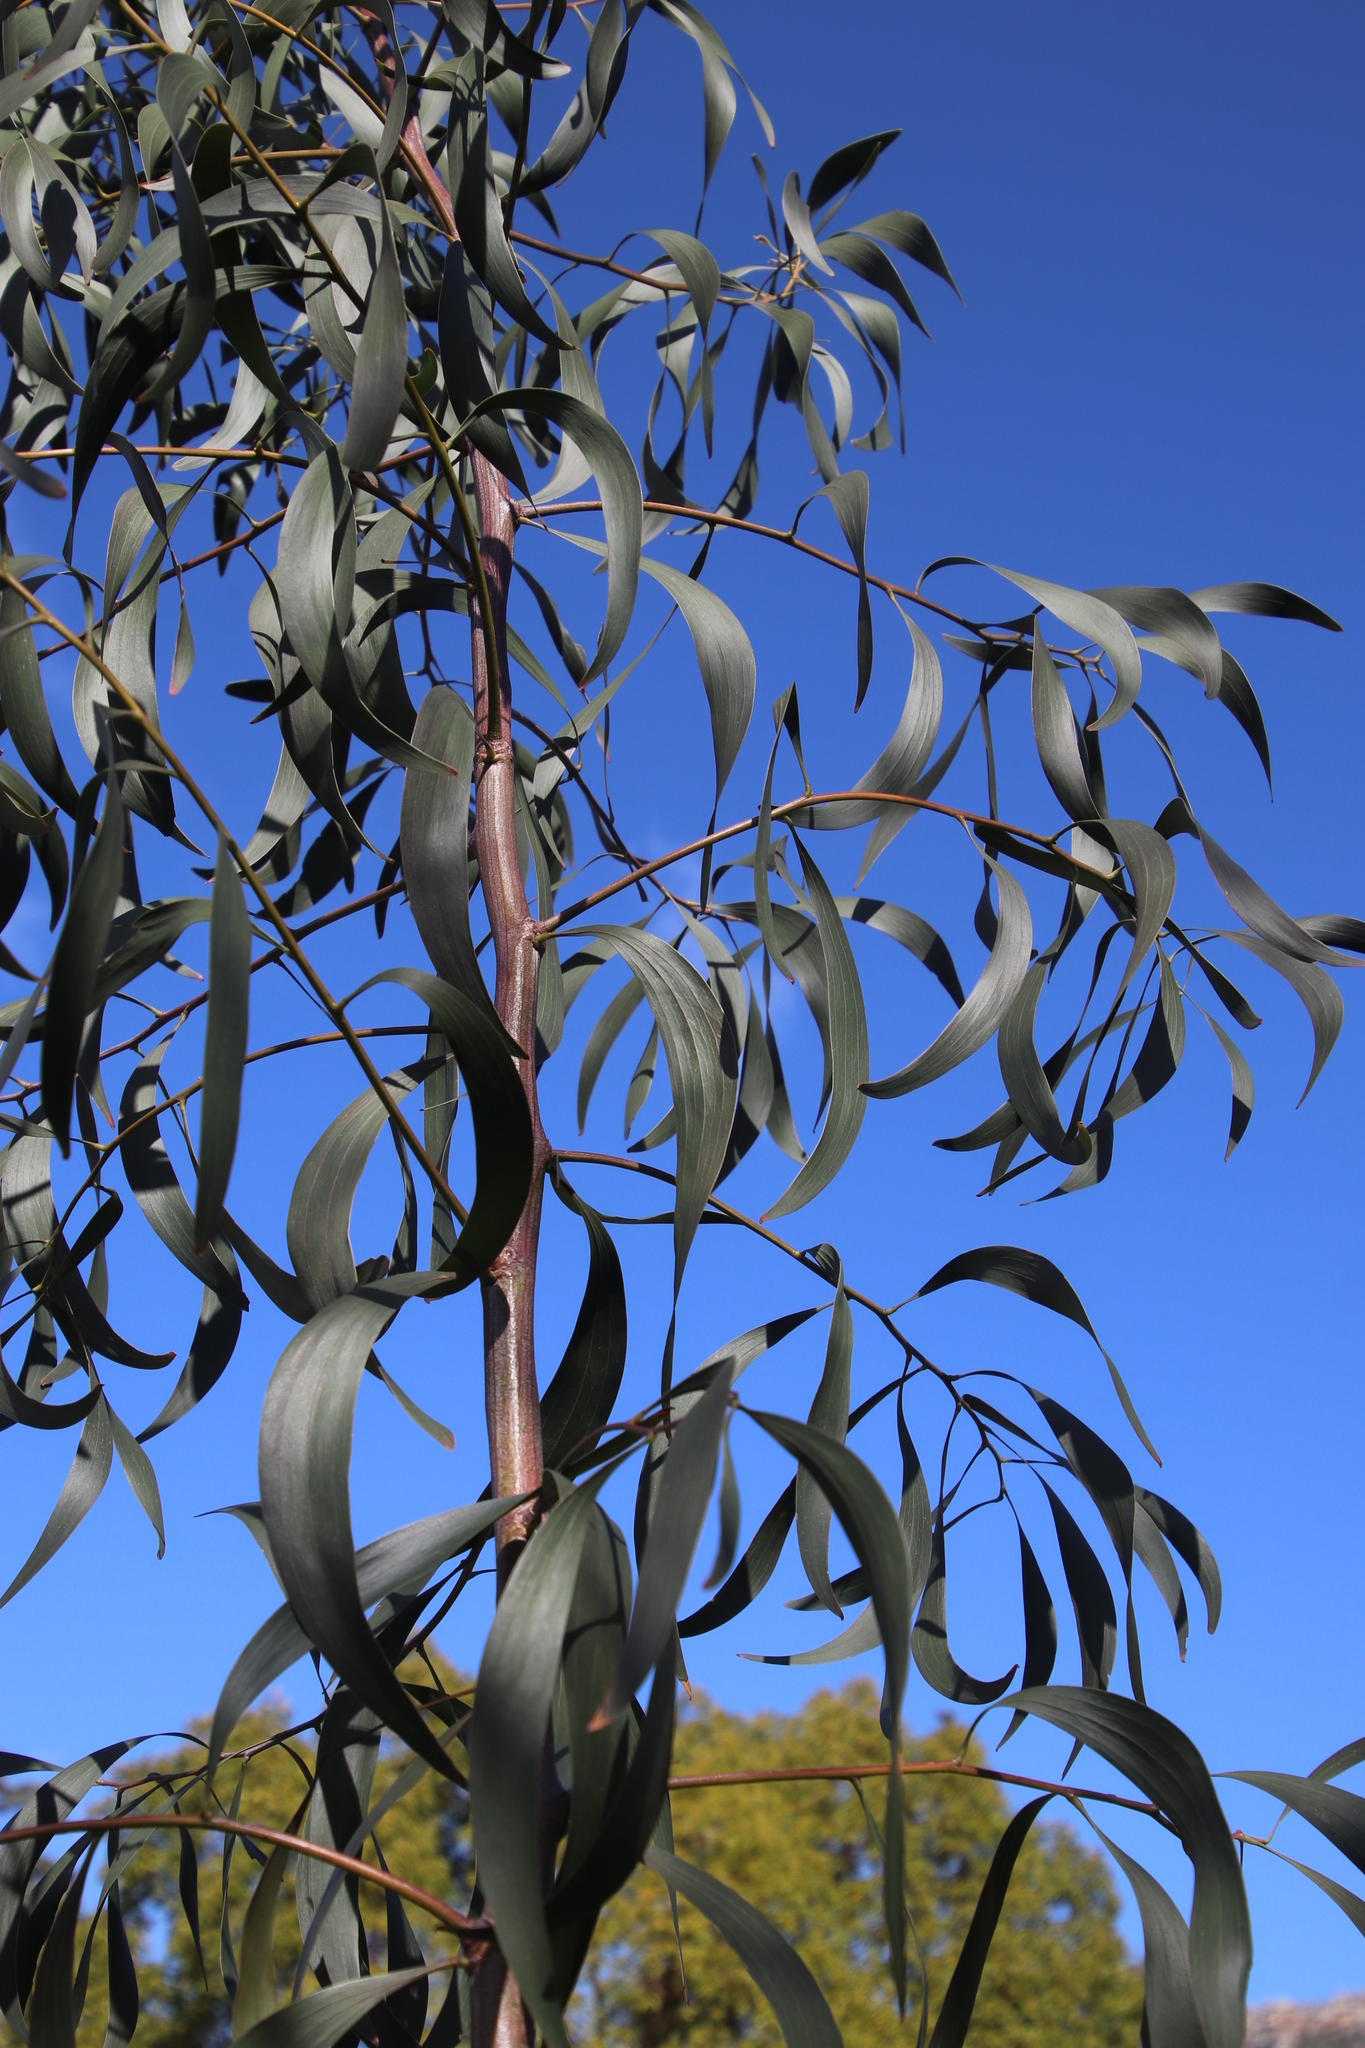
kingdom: Plantae
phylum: Tracheophyta
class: Magnoliopsida
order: Fabales
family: Fabaceae
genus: Acacia
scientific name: Acacia implexa
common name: Black wattle
